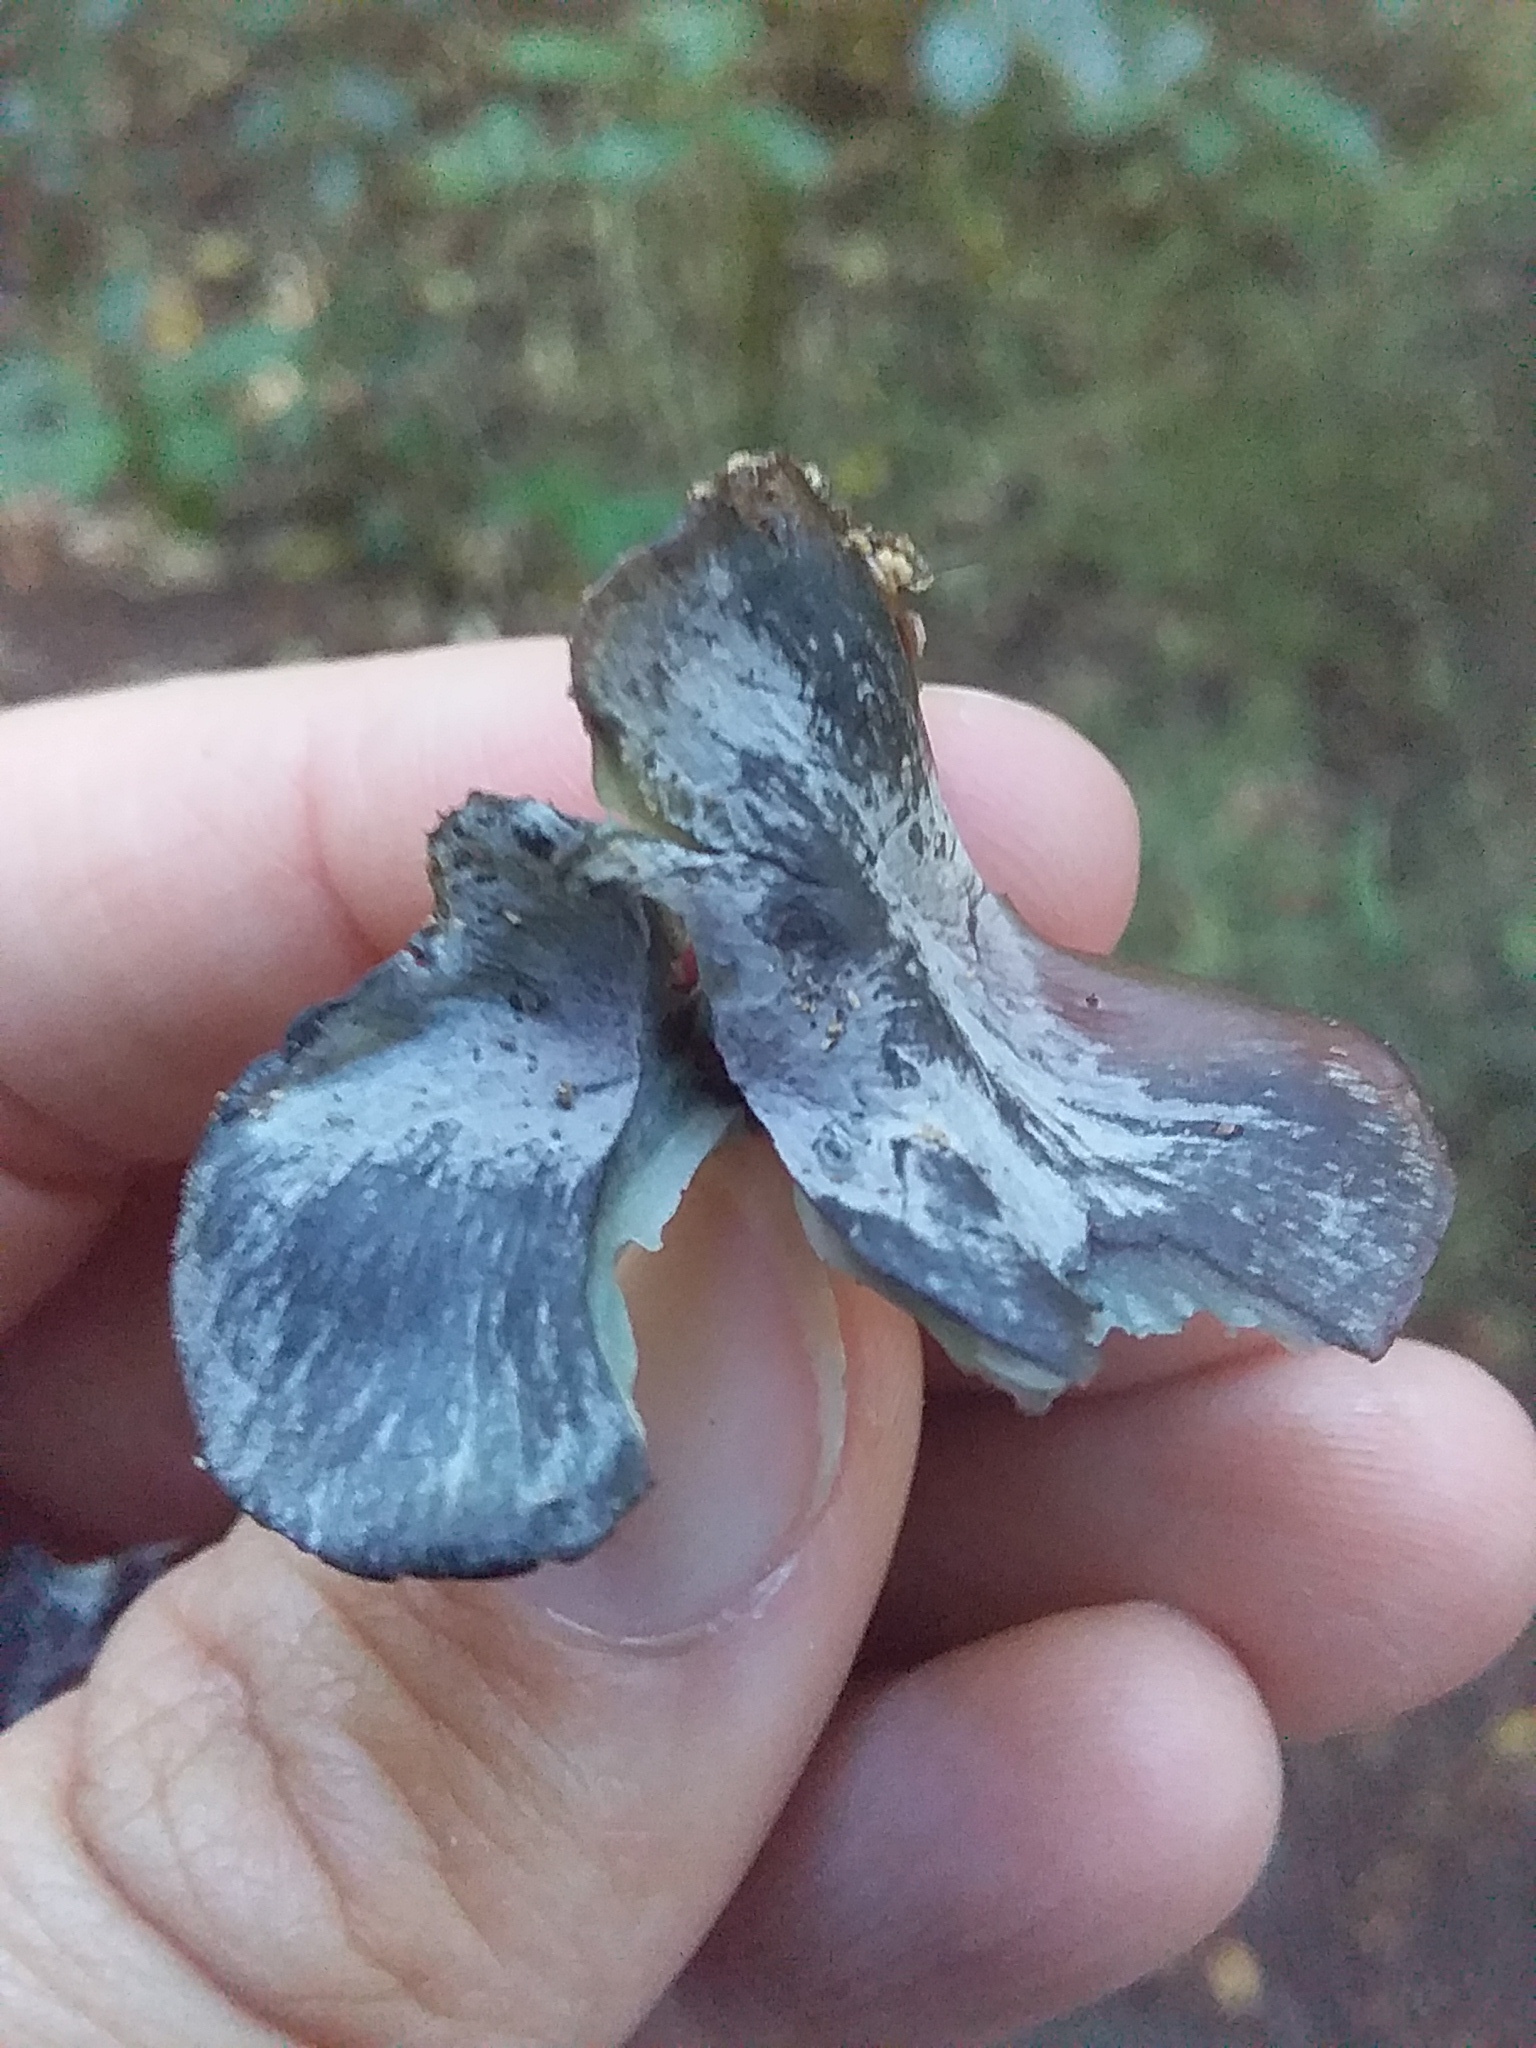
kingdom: Fungi
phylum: Basidiomycota
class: Agaricomycetes
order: Agaricales
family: Marasmiaceae
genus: Gerronema
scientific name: Gerronema waikanaense
